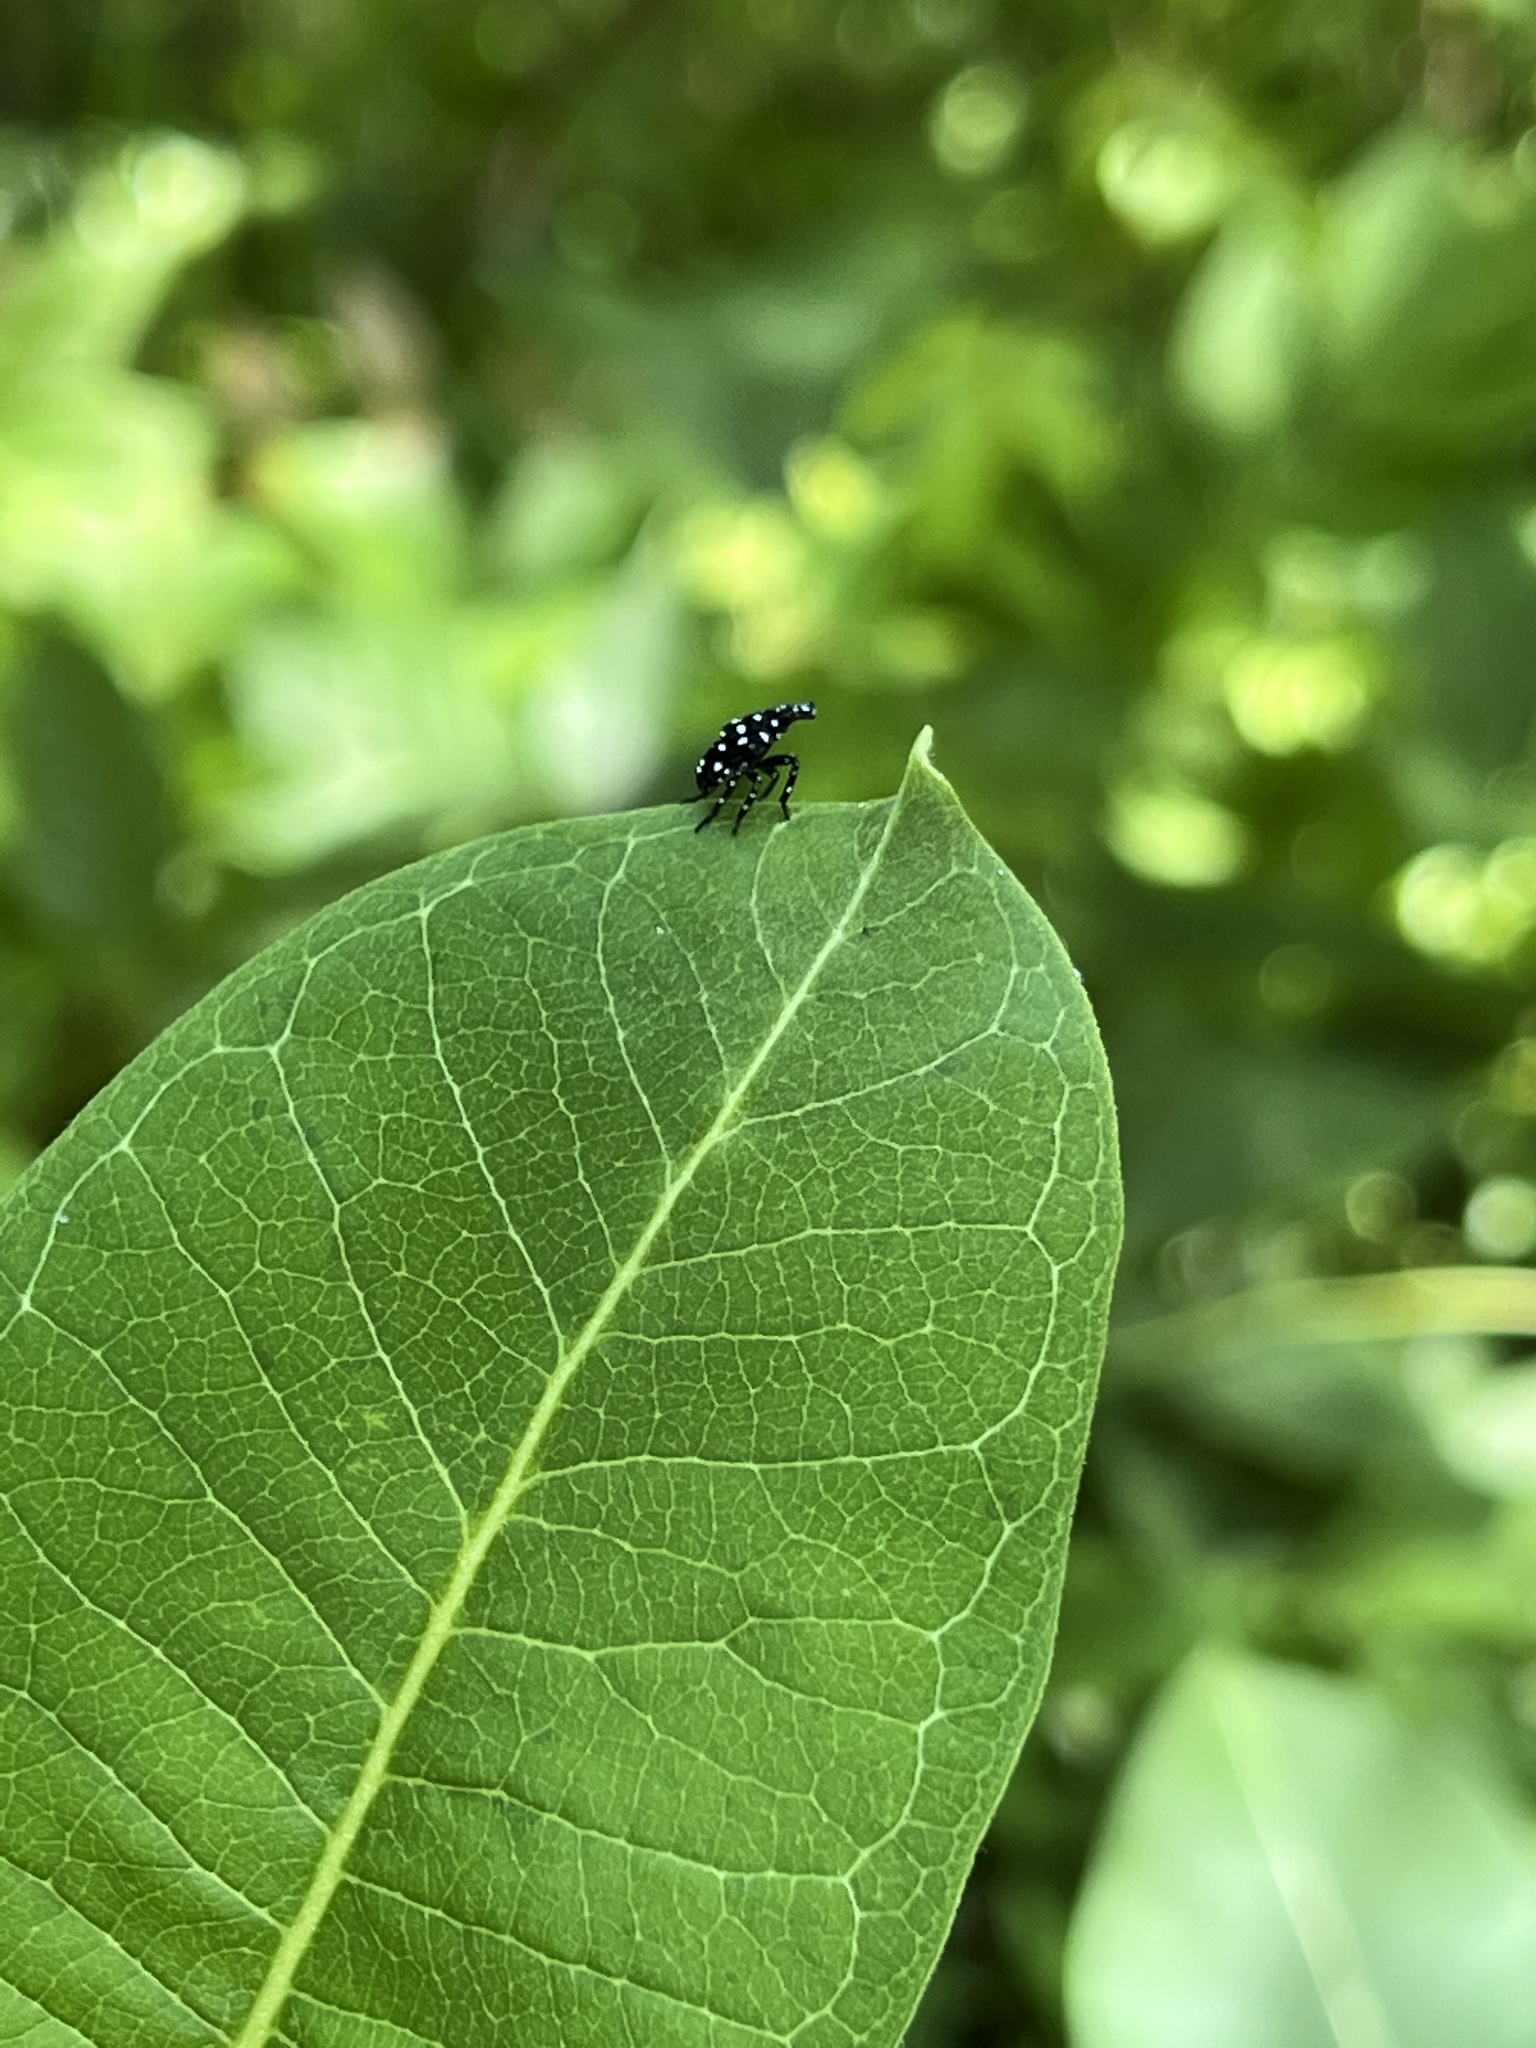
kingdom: Animalia
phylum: Arthropoda
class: Insecta
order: Hemiptera
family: Fulgoridae
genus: Lycorma
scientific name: Lycorma delicatula
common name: Spotted lanternfly
